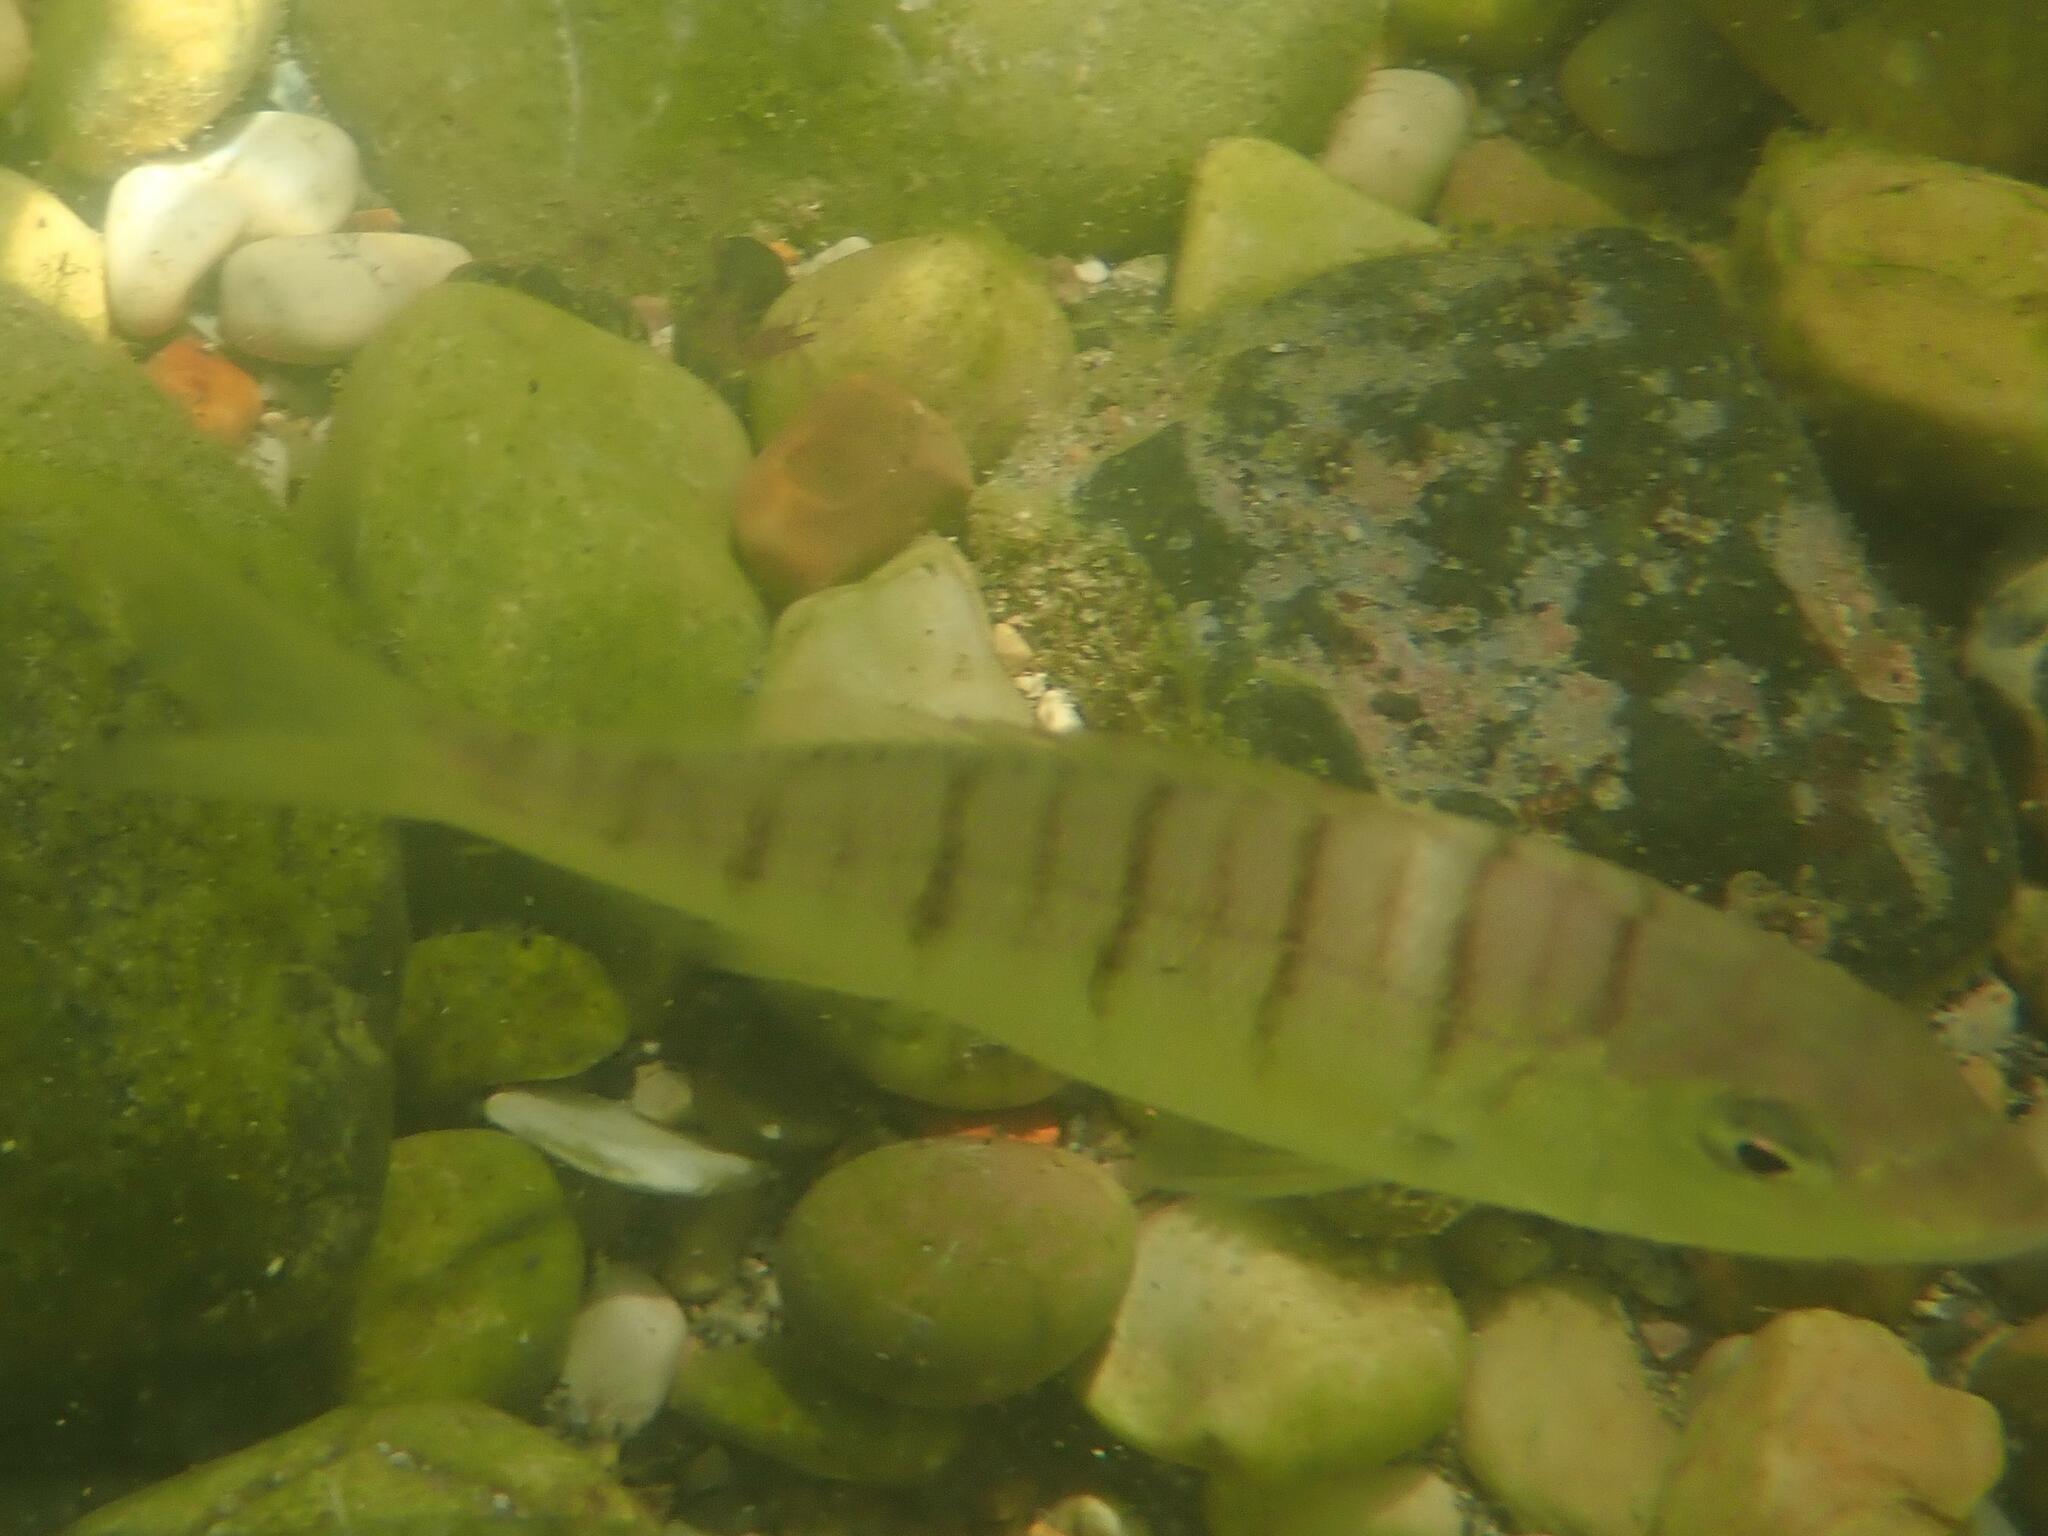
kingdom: Animalia
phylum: Chordata
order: Perciformes
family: Sparidae
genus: Lithognathus
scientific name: Lithognathus mormyrus
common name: Sand steenbras
